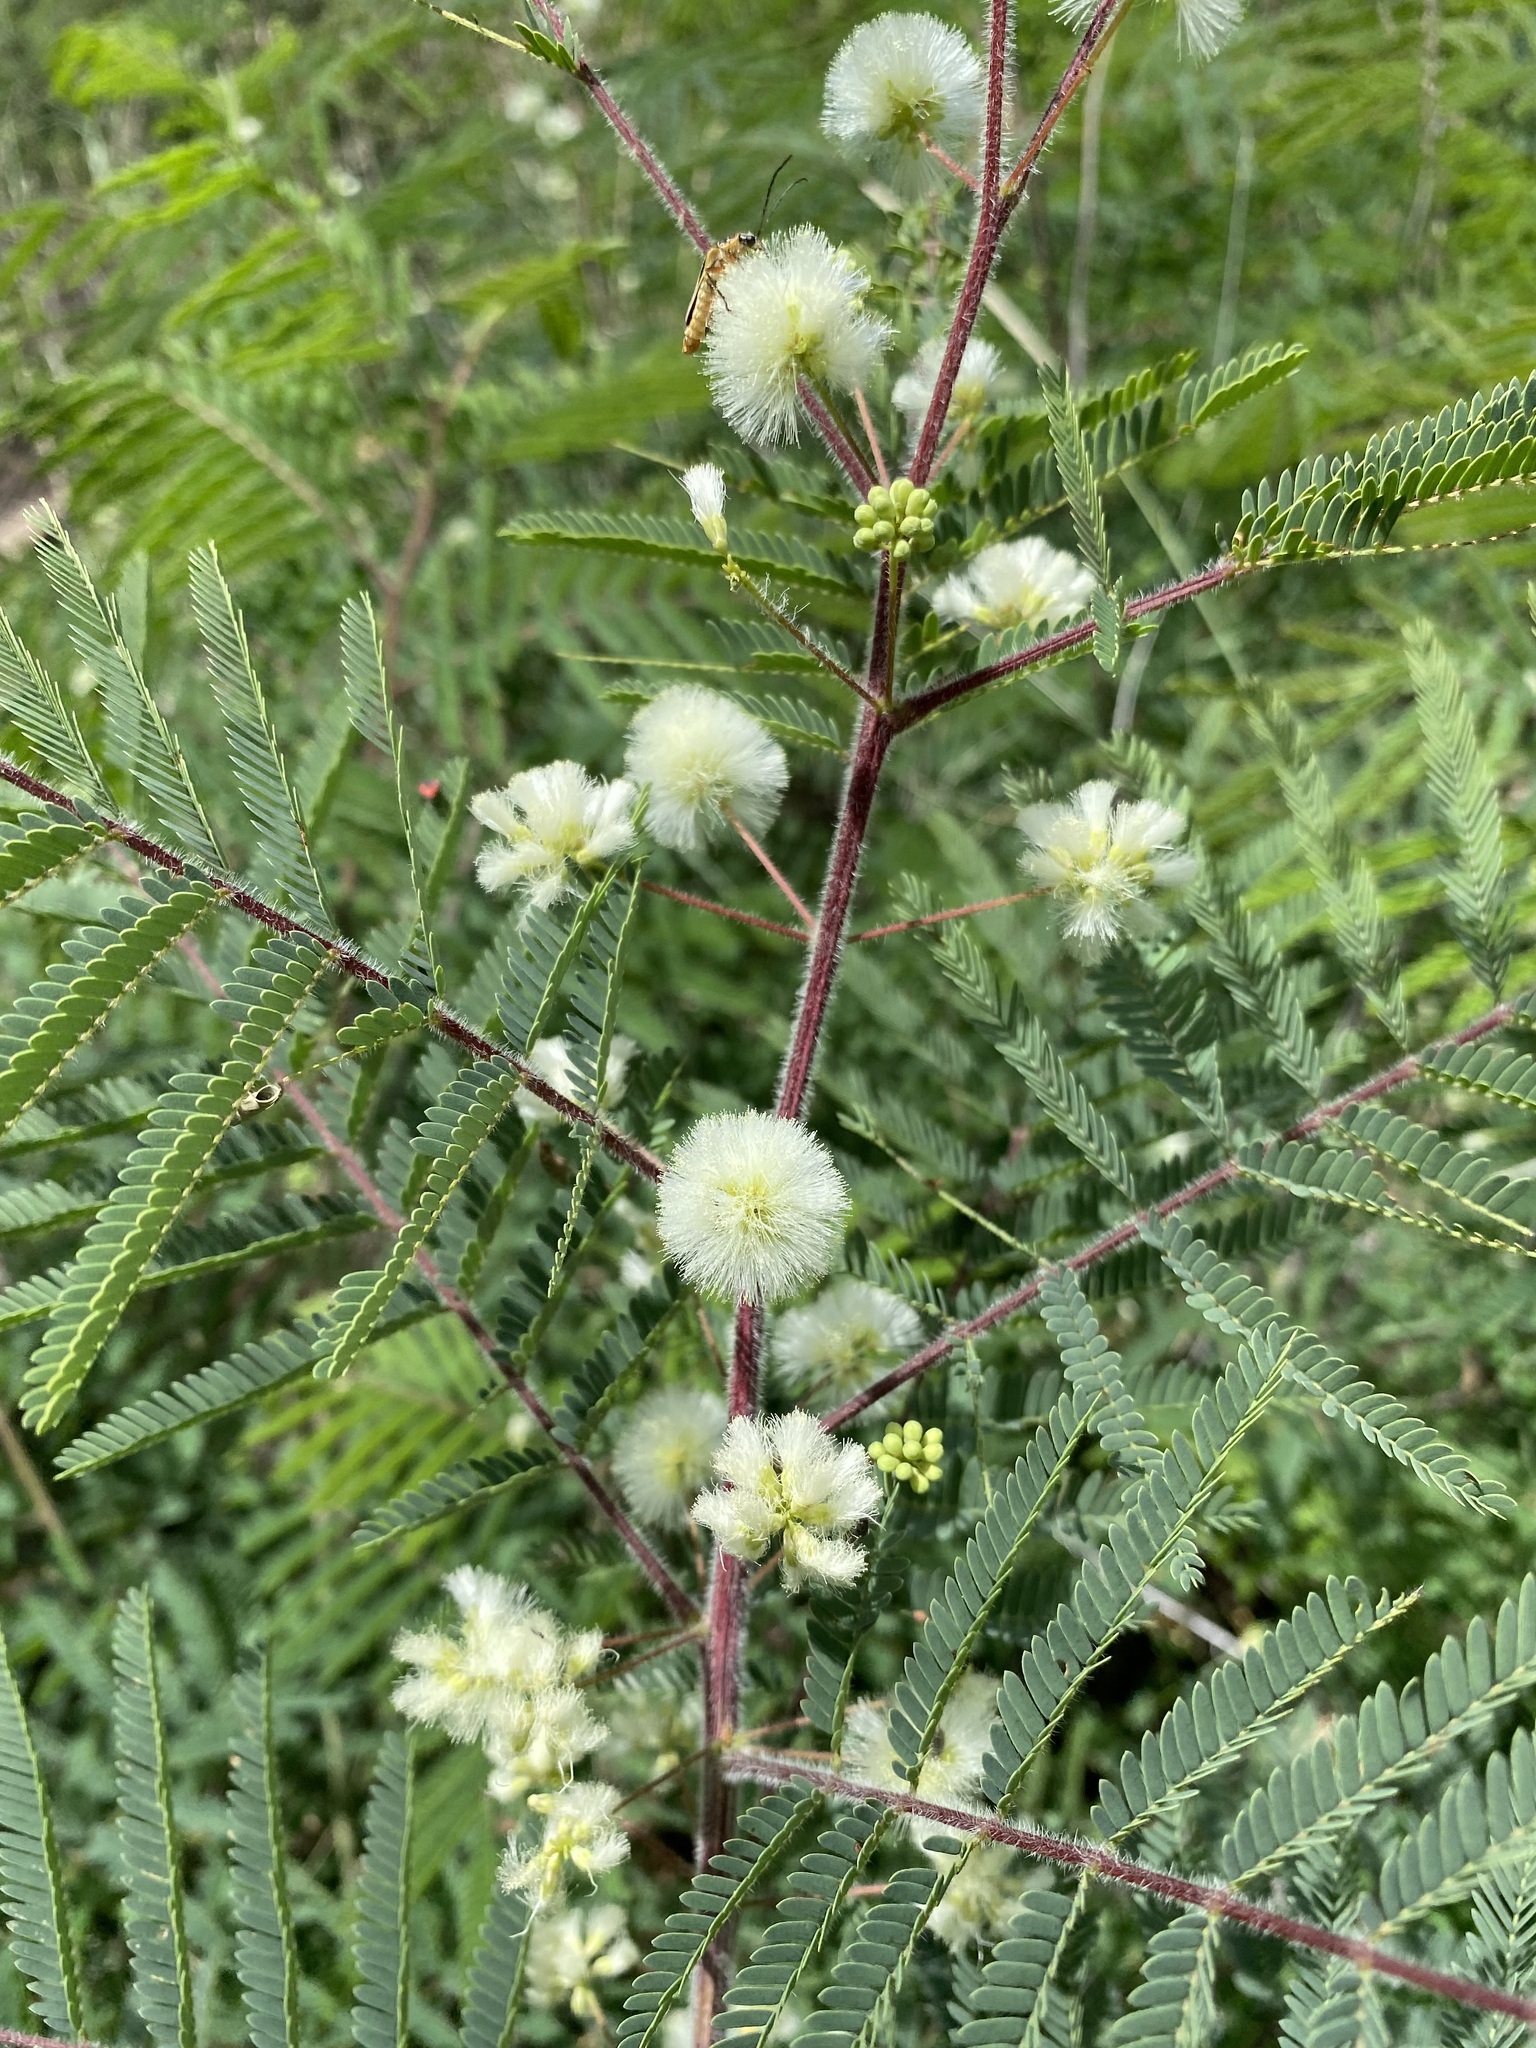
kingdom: Plantae
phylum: Tracheophyta
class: Magnoliopsida
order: Fabales
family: Fabaceae
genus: Acaciella
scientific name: Acaciella angustissima
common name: Prairie acacia
